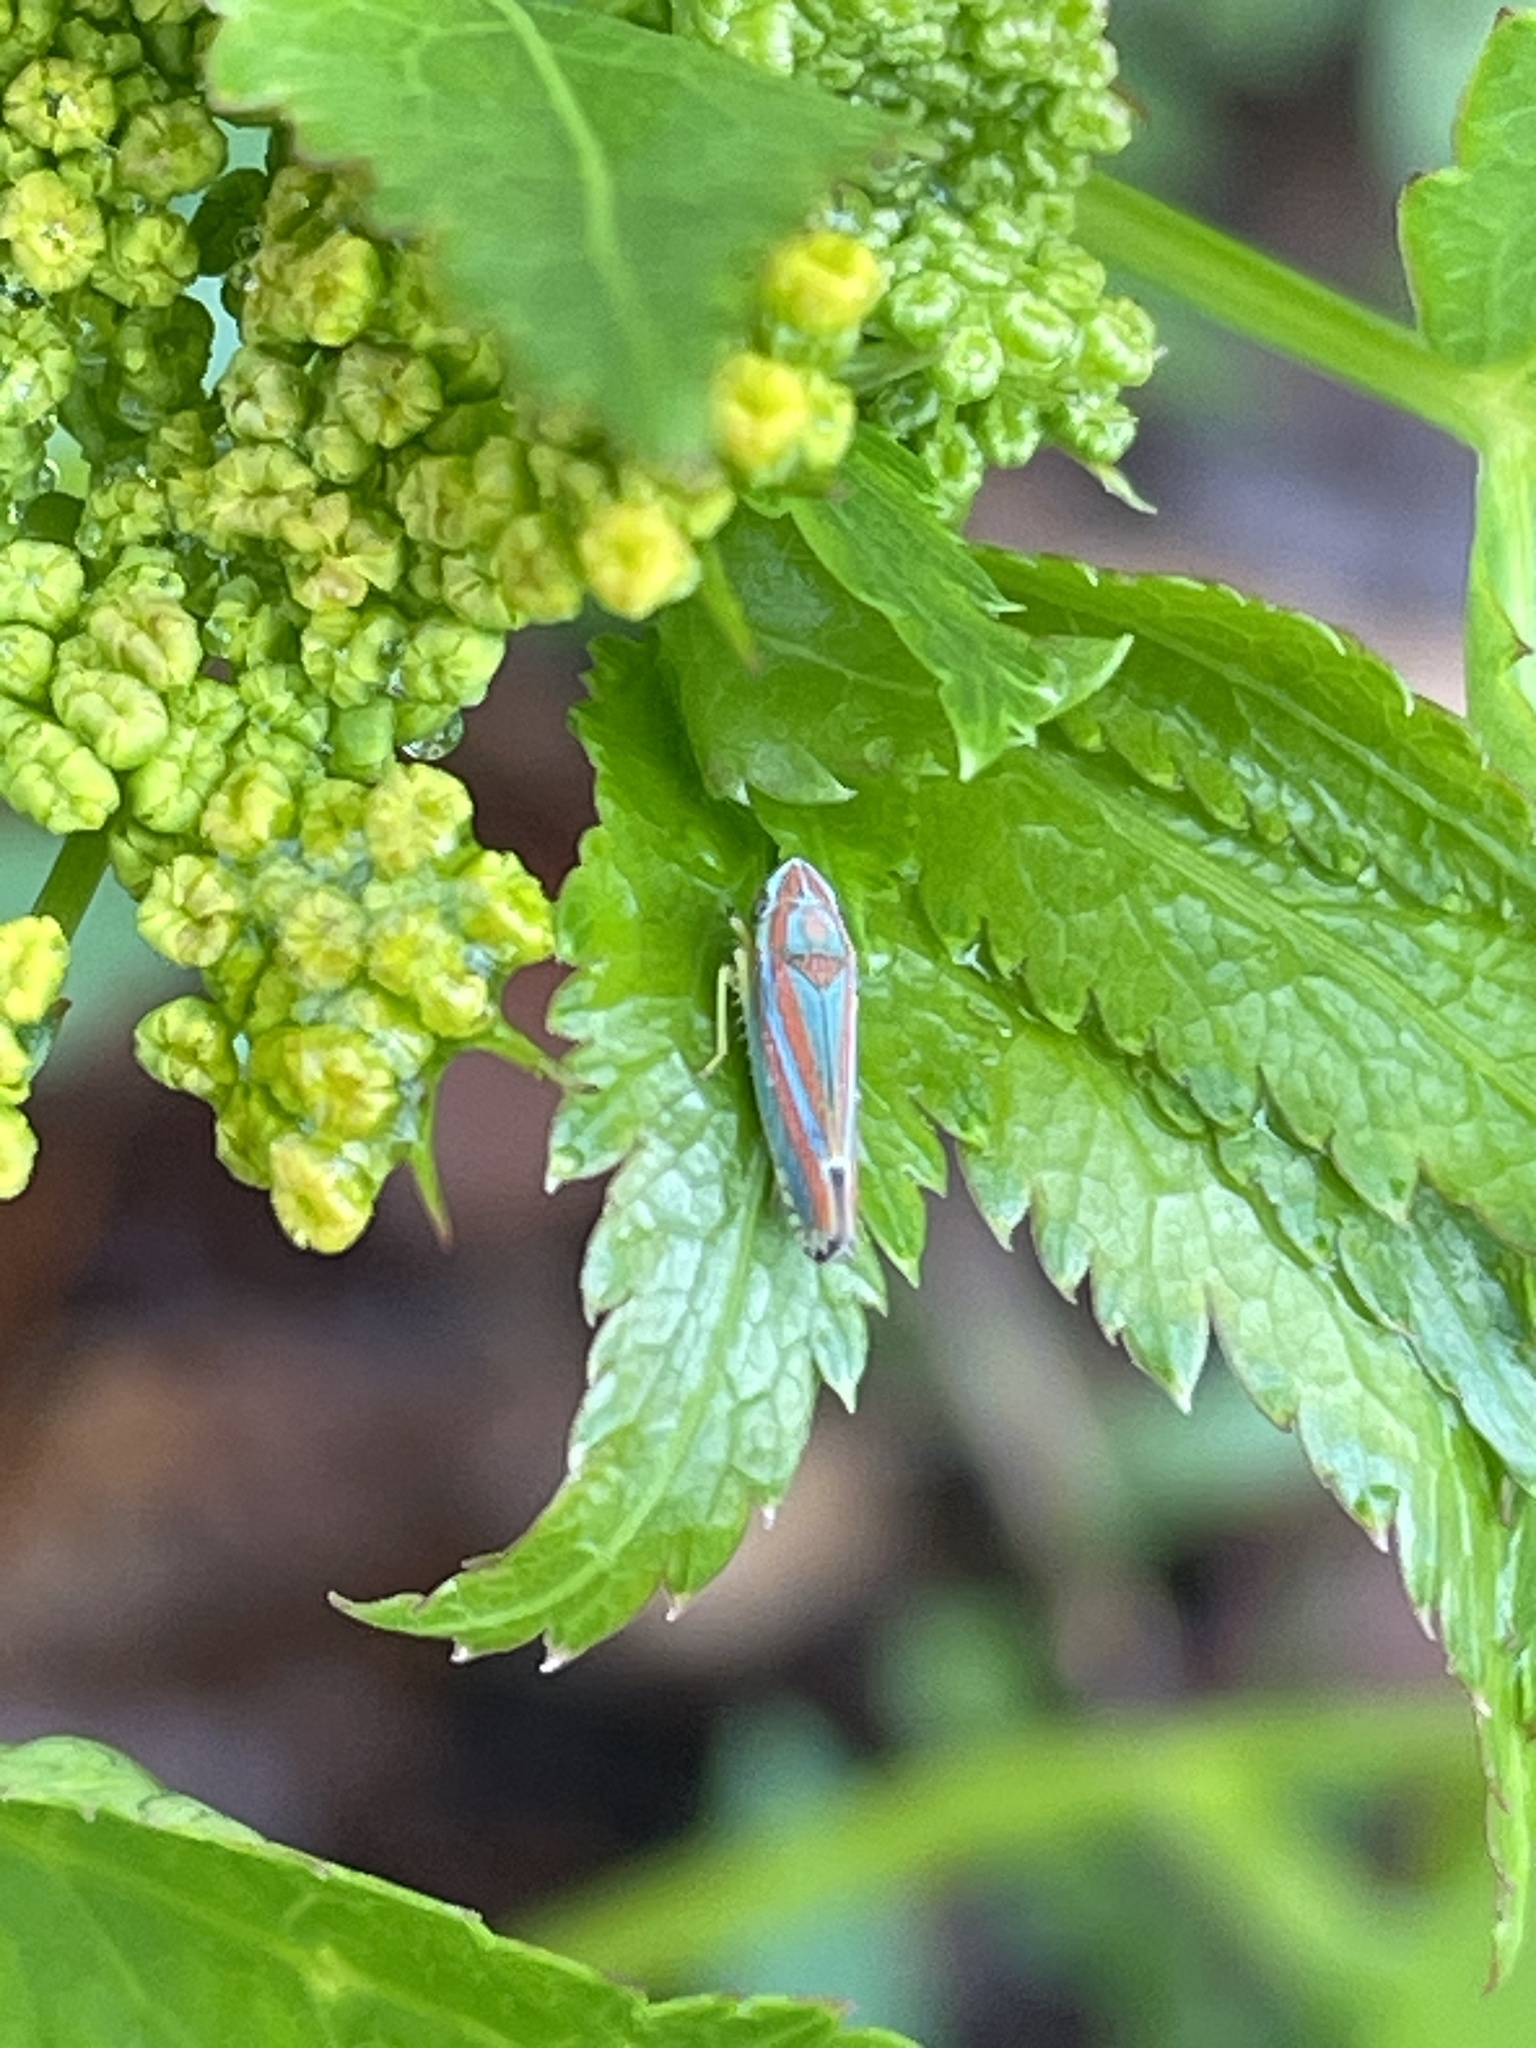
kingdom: Animalia
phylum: Arthropoda
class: Insecta
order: Hemiptera
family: Cicadellidae
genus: Graphocephala
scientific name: Graphocephala versuta
